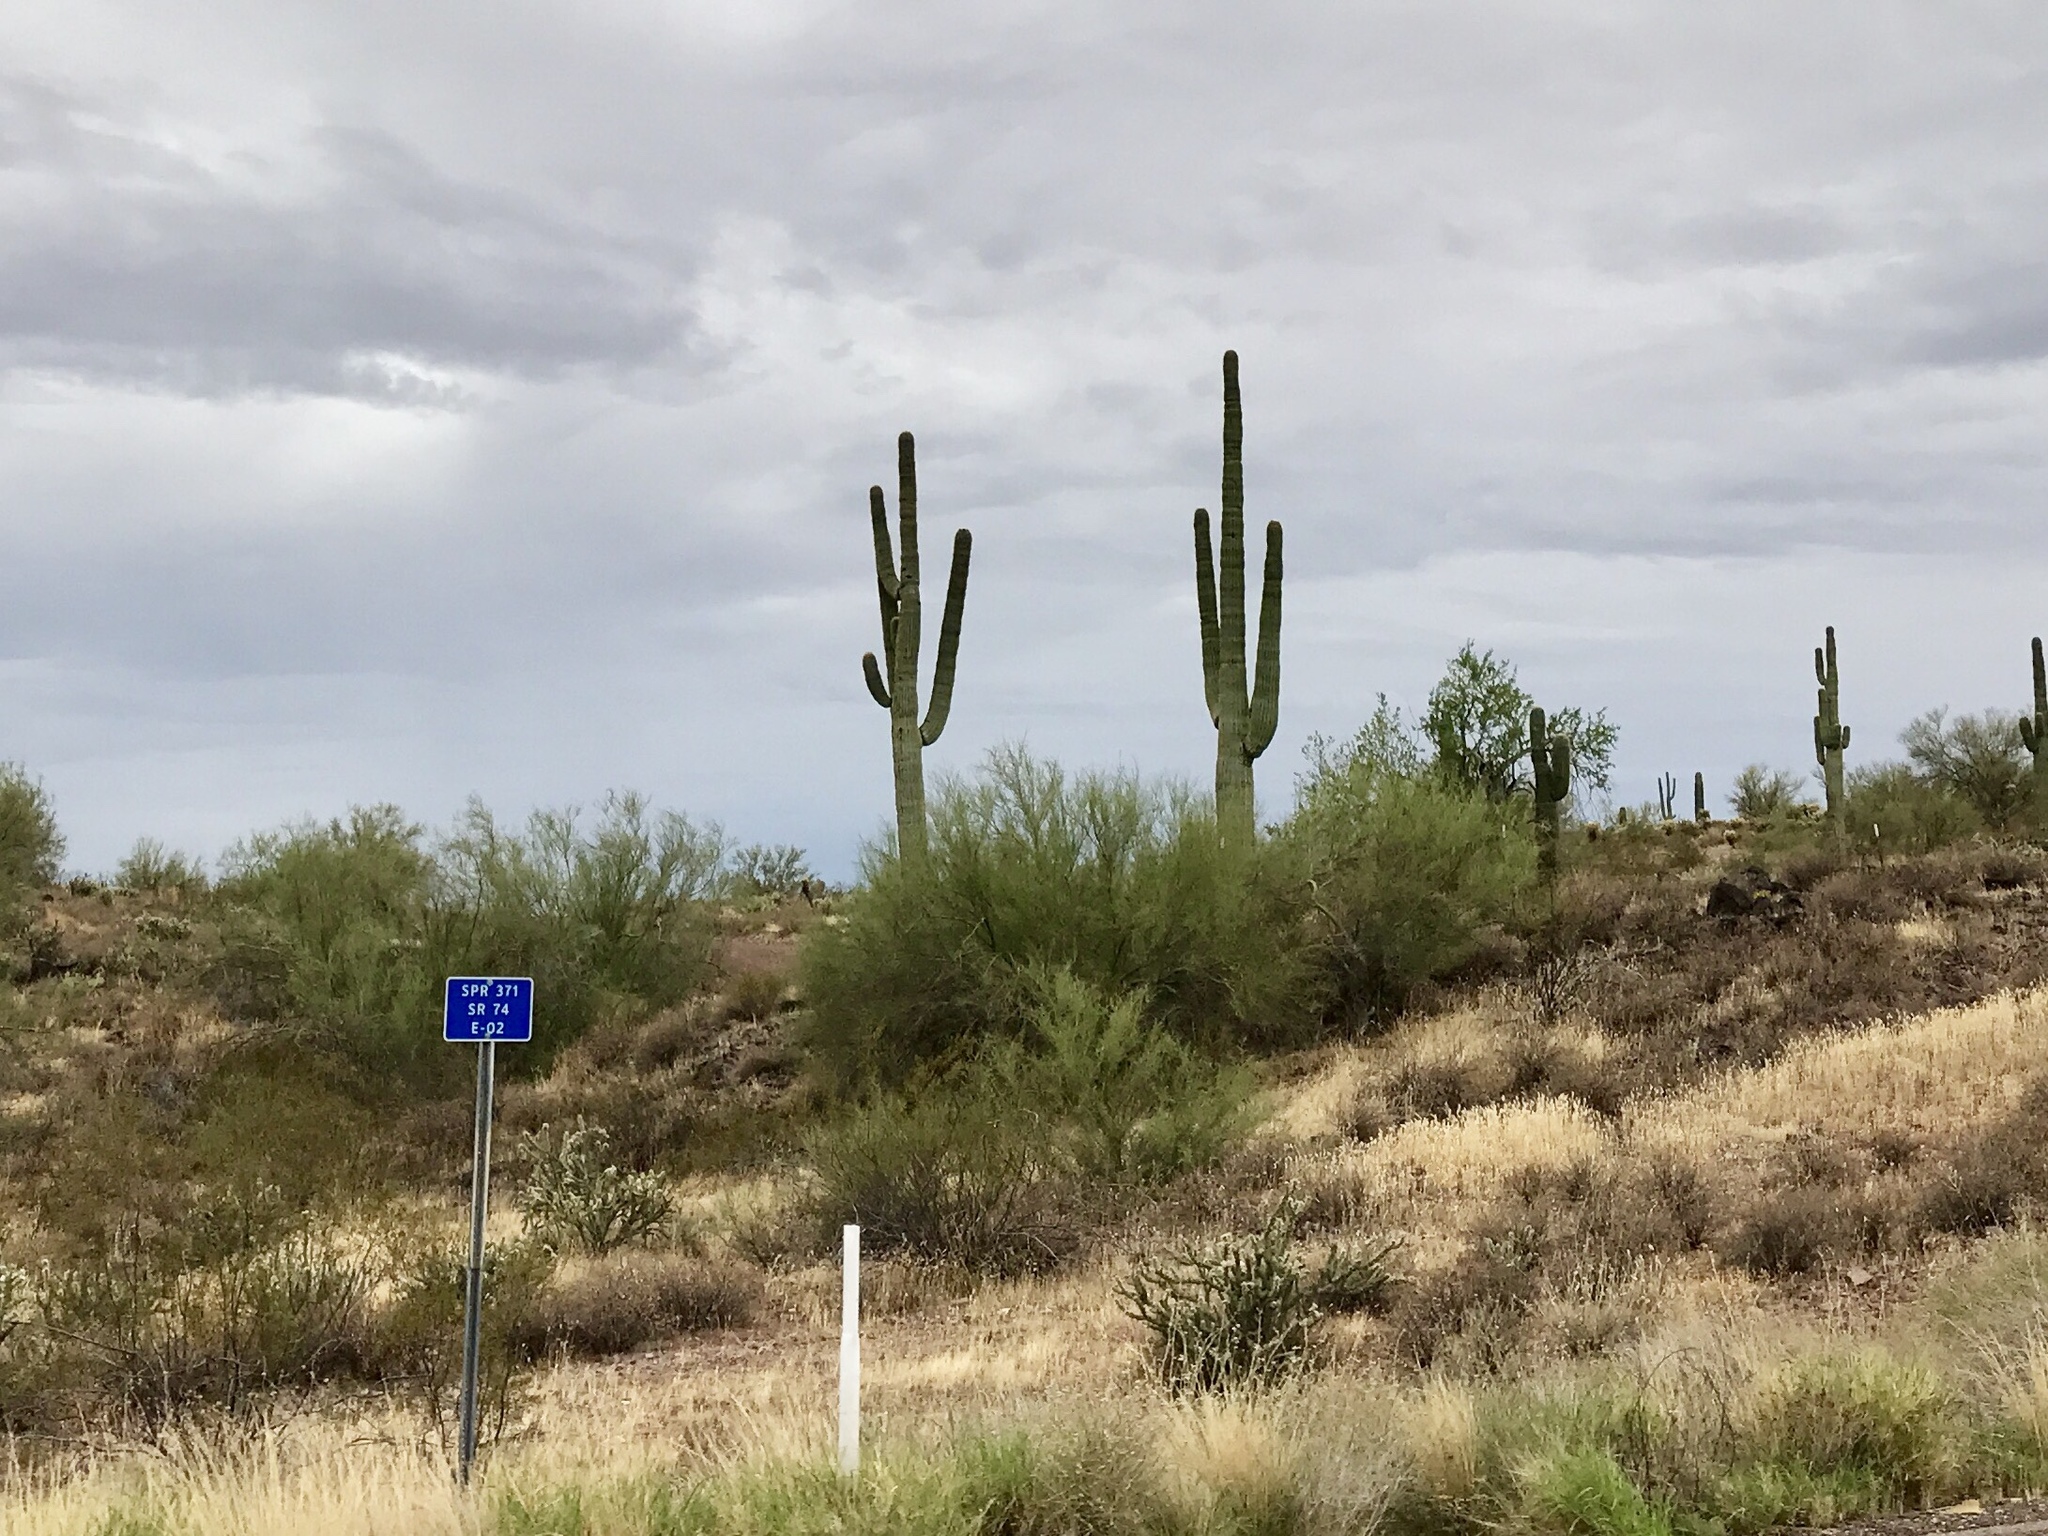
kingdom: Plantae
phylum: Tracheophyta
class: Magnoliopsida
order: Caryophyllales
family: Cactaceae
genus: Carnegiea
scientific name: Carnegiea gigantea
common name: Saguaro
